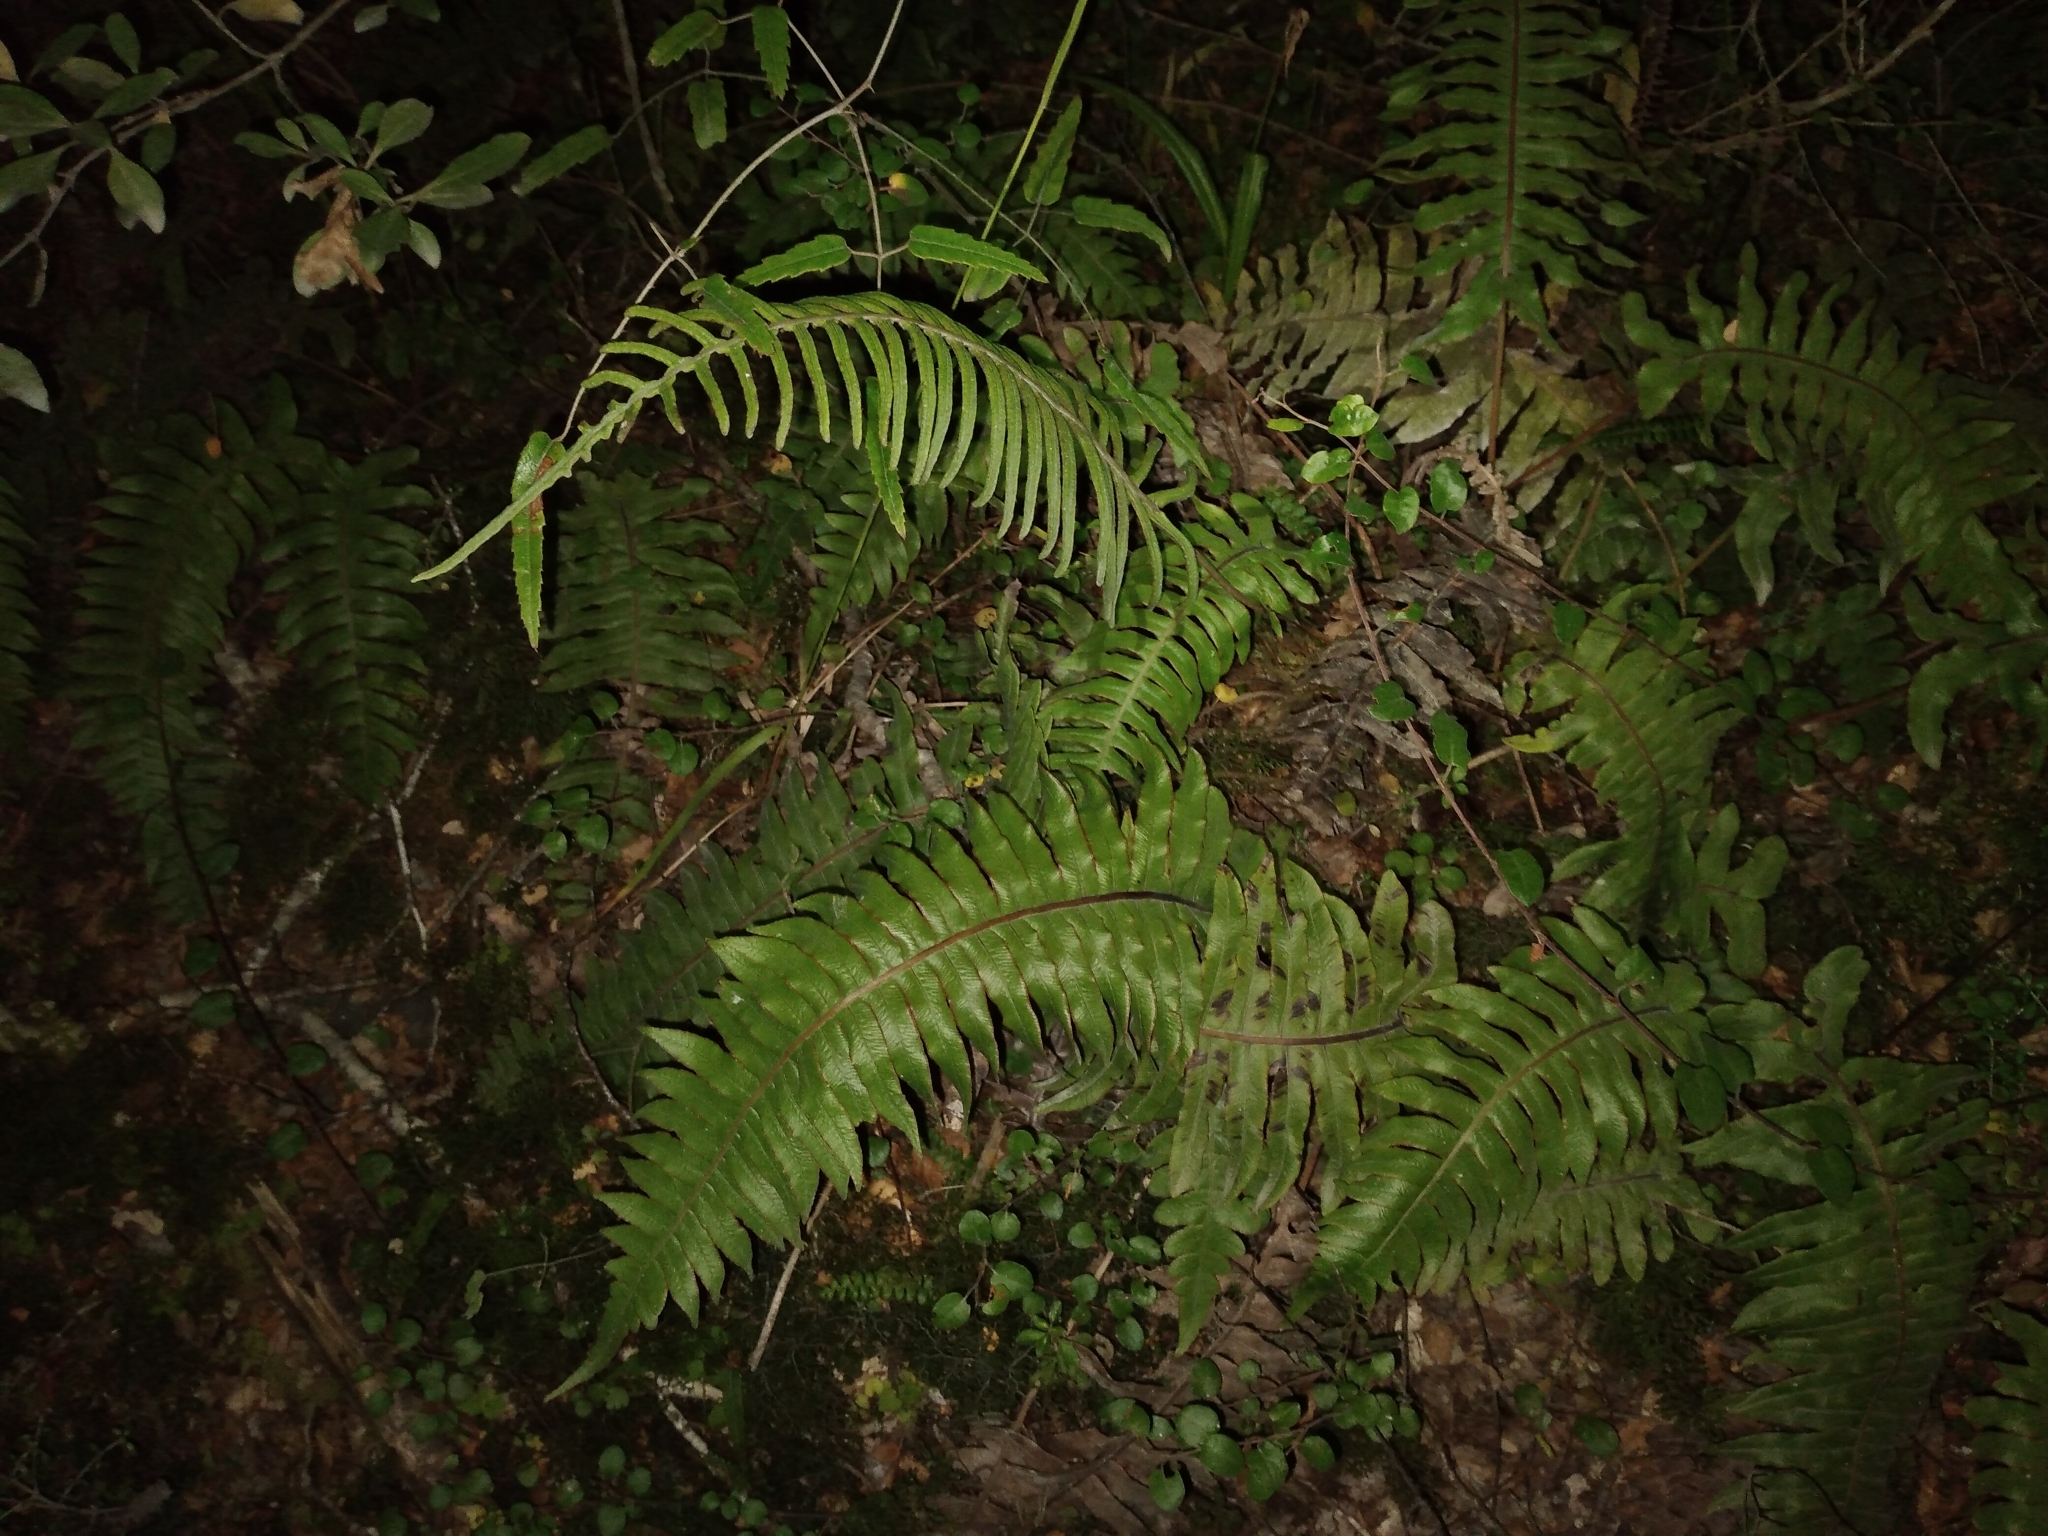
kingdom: Plantae
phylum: Tracheophyta
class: Polypodiopsida
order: Polypodiales
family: Blechnaceae
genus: Cranfillia
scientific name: Cranfillia deltoides
